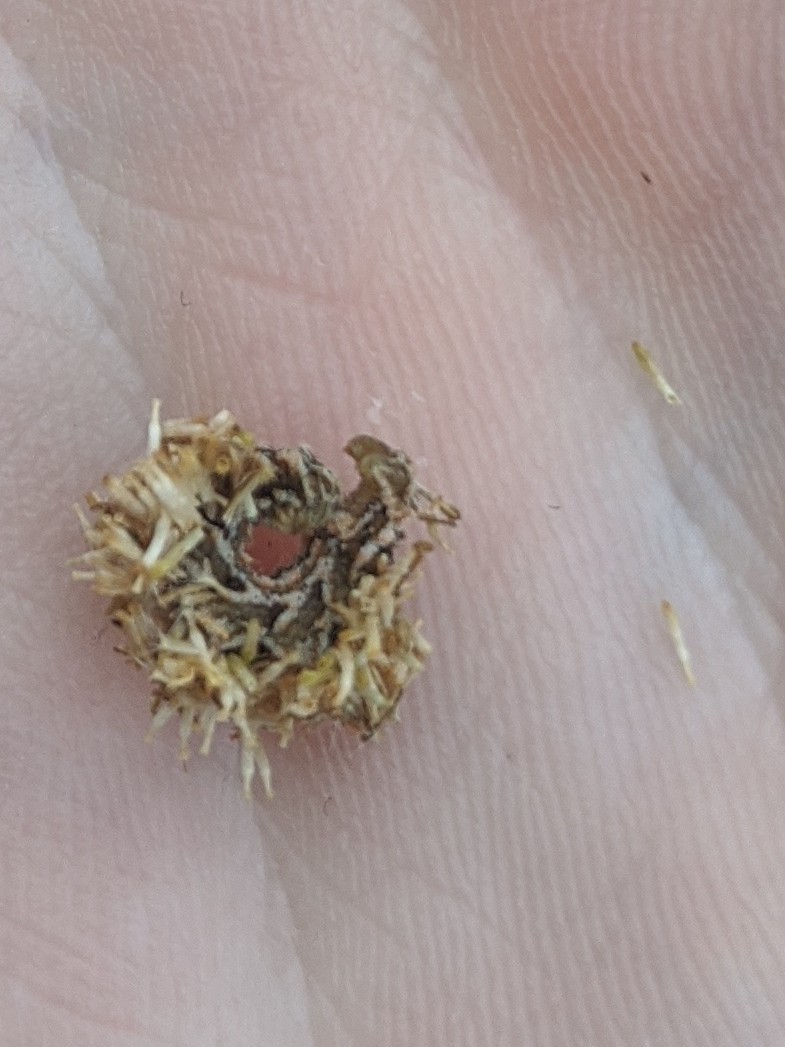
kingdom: Animalia
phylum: Arthropoda
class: Insecta
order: Lepidoptera
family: Geometridae
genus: Synchlora
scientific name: Synchlora aerata
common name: Wavy-lined emerald
